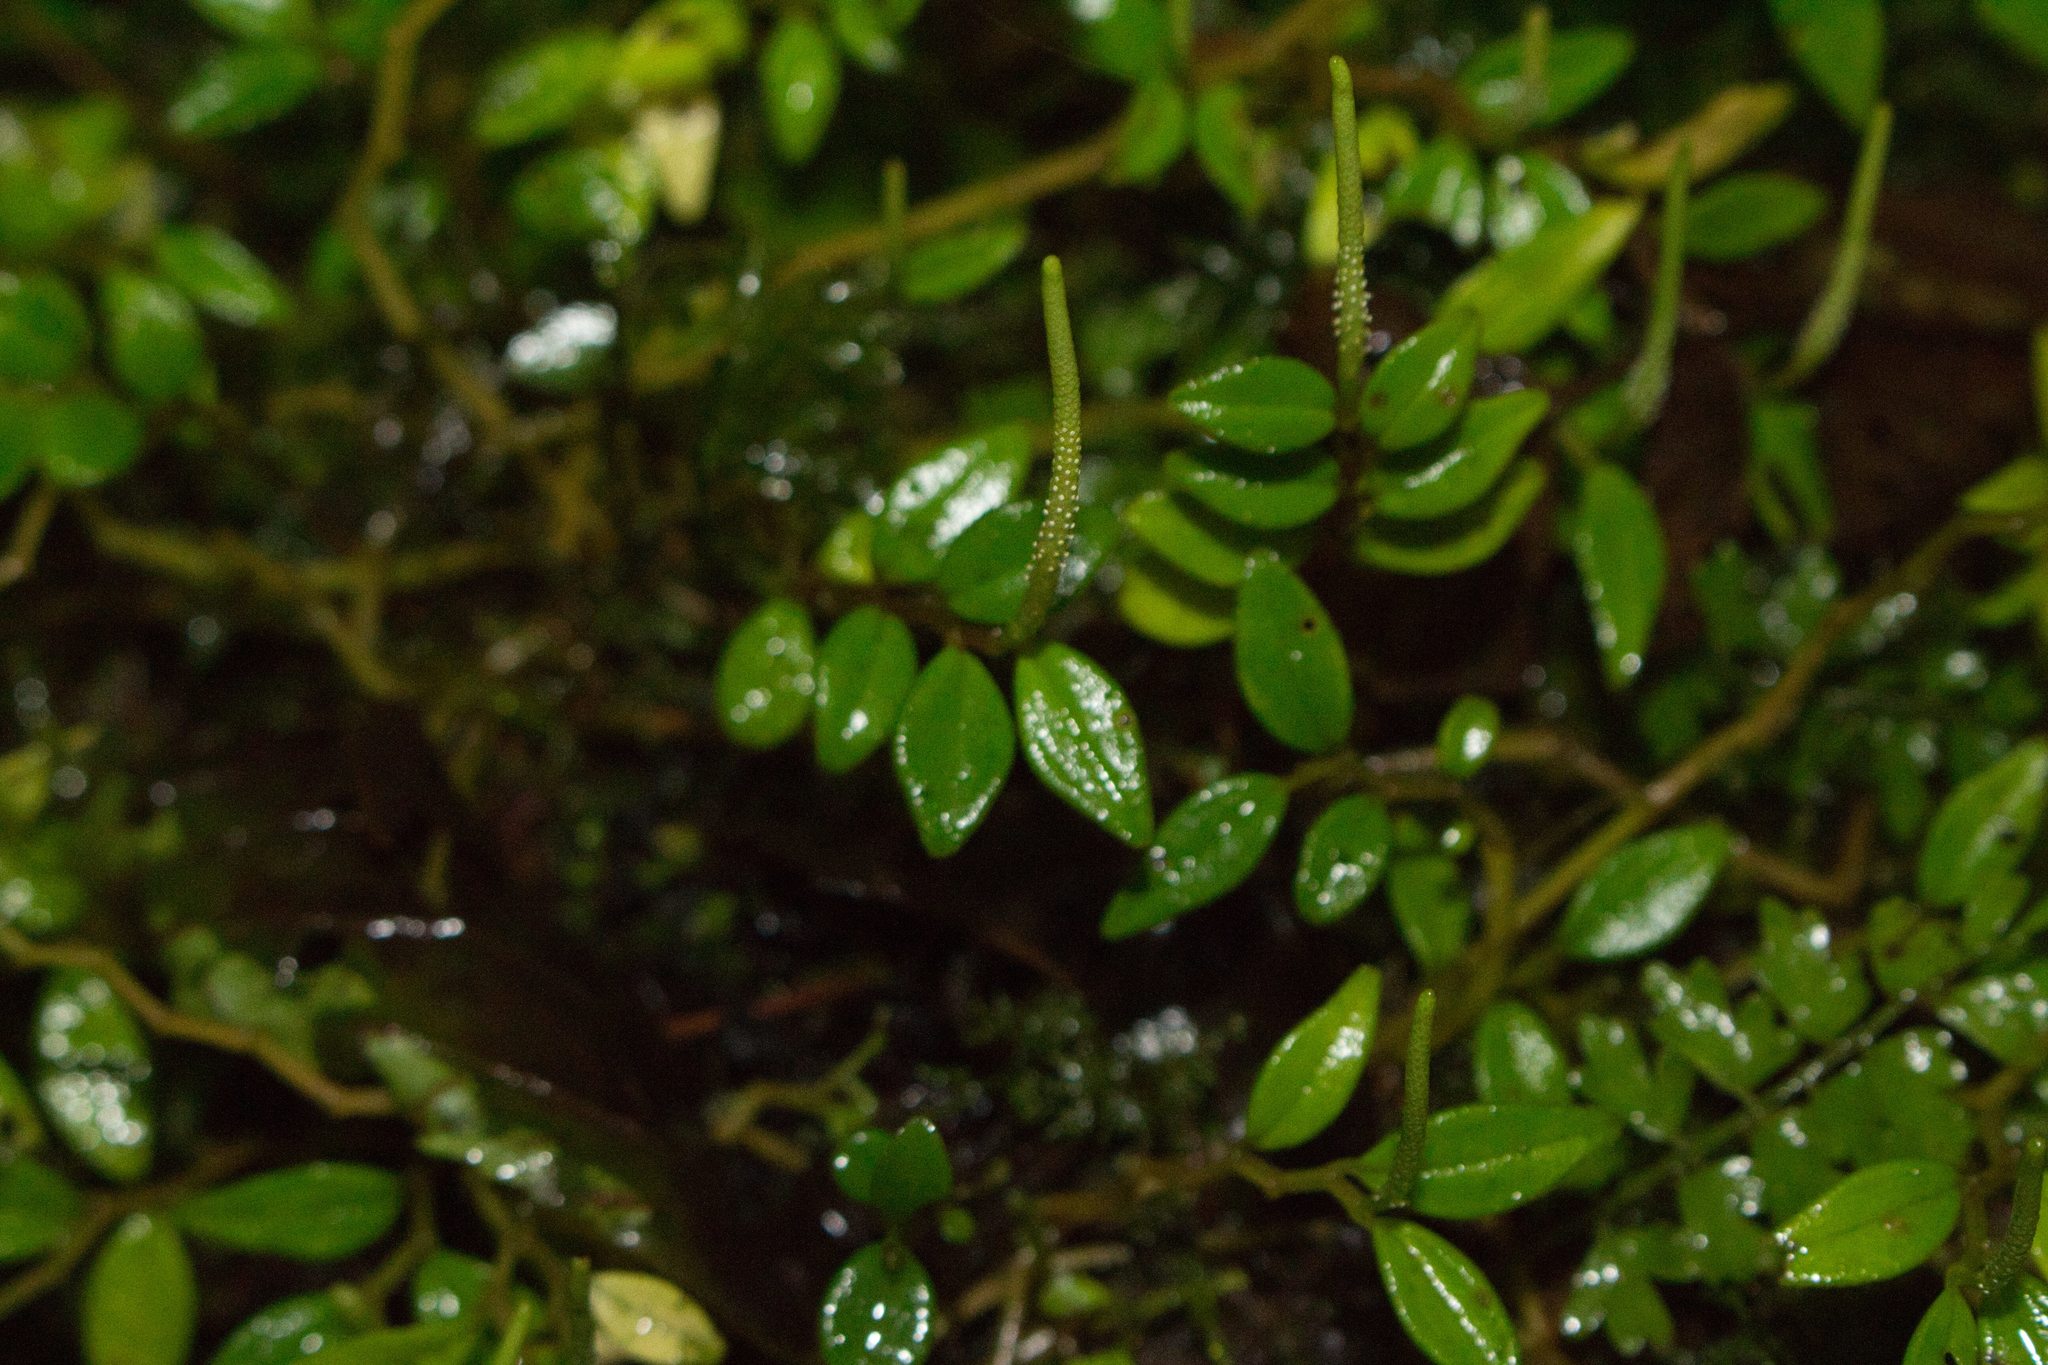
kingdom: Plantae
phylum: Tracheophyta
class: Magnoliopsida
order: Piperales
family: Piperaceae
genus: Peperomia
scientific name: Peperomia tenelliformis
